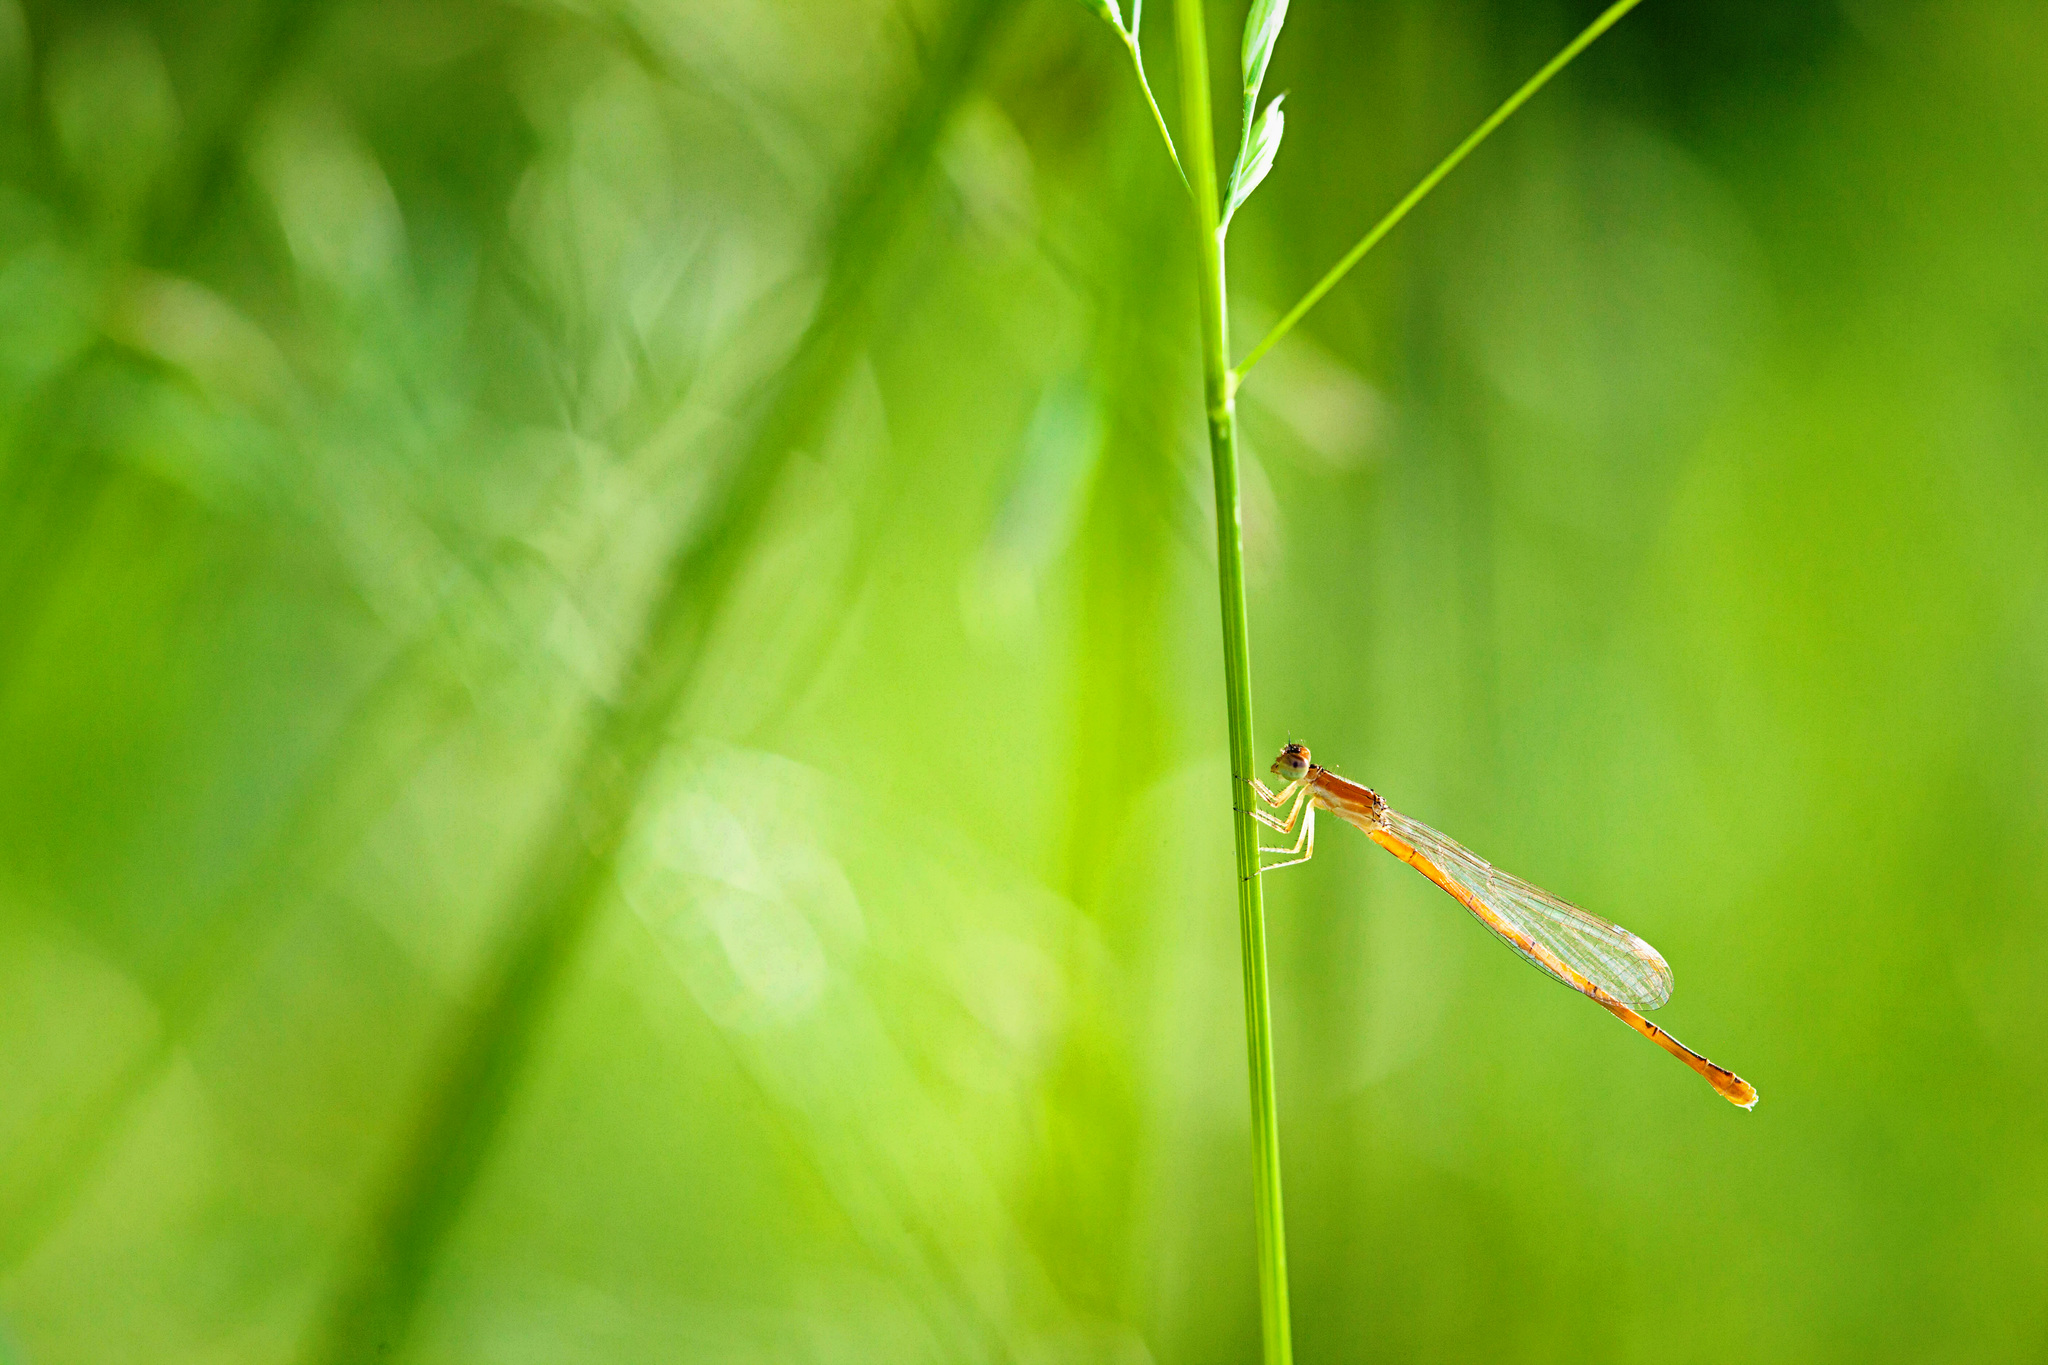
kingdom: Animalia
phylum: Arthropoda
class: Insecta
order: Odonata
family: Coenagrionidae
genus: Ischnura
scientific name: Ischnura hastata
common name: Citrine forktail
